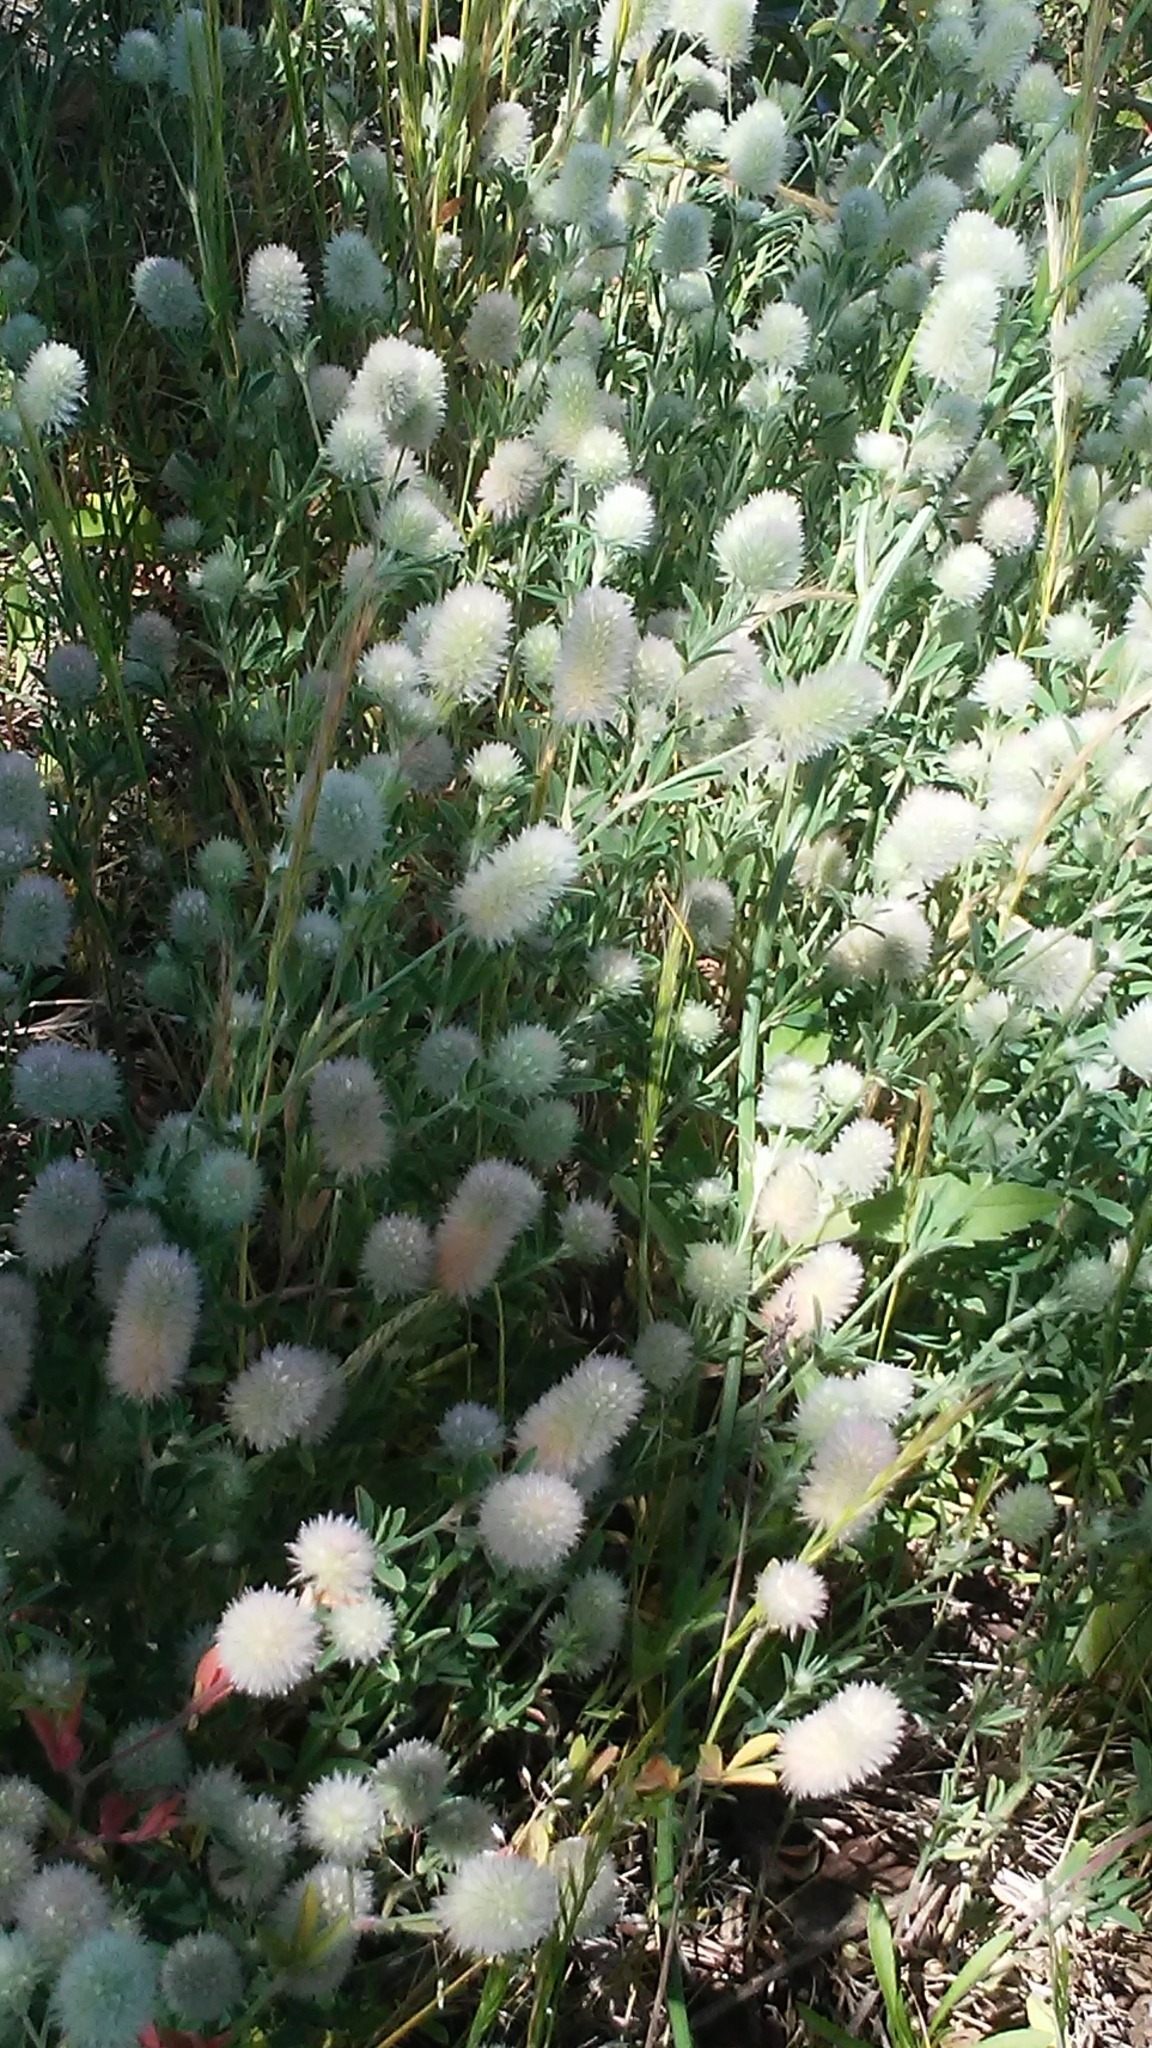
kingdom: Plantae
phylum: Tracheophyta
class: Magnoliopsida
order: Fabales
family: Fabaceae
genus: Trifolium
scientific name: Trifolium arvense
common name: Hare's-foot clover
